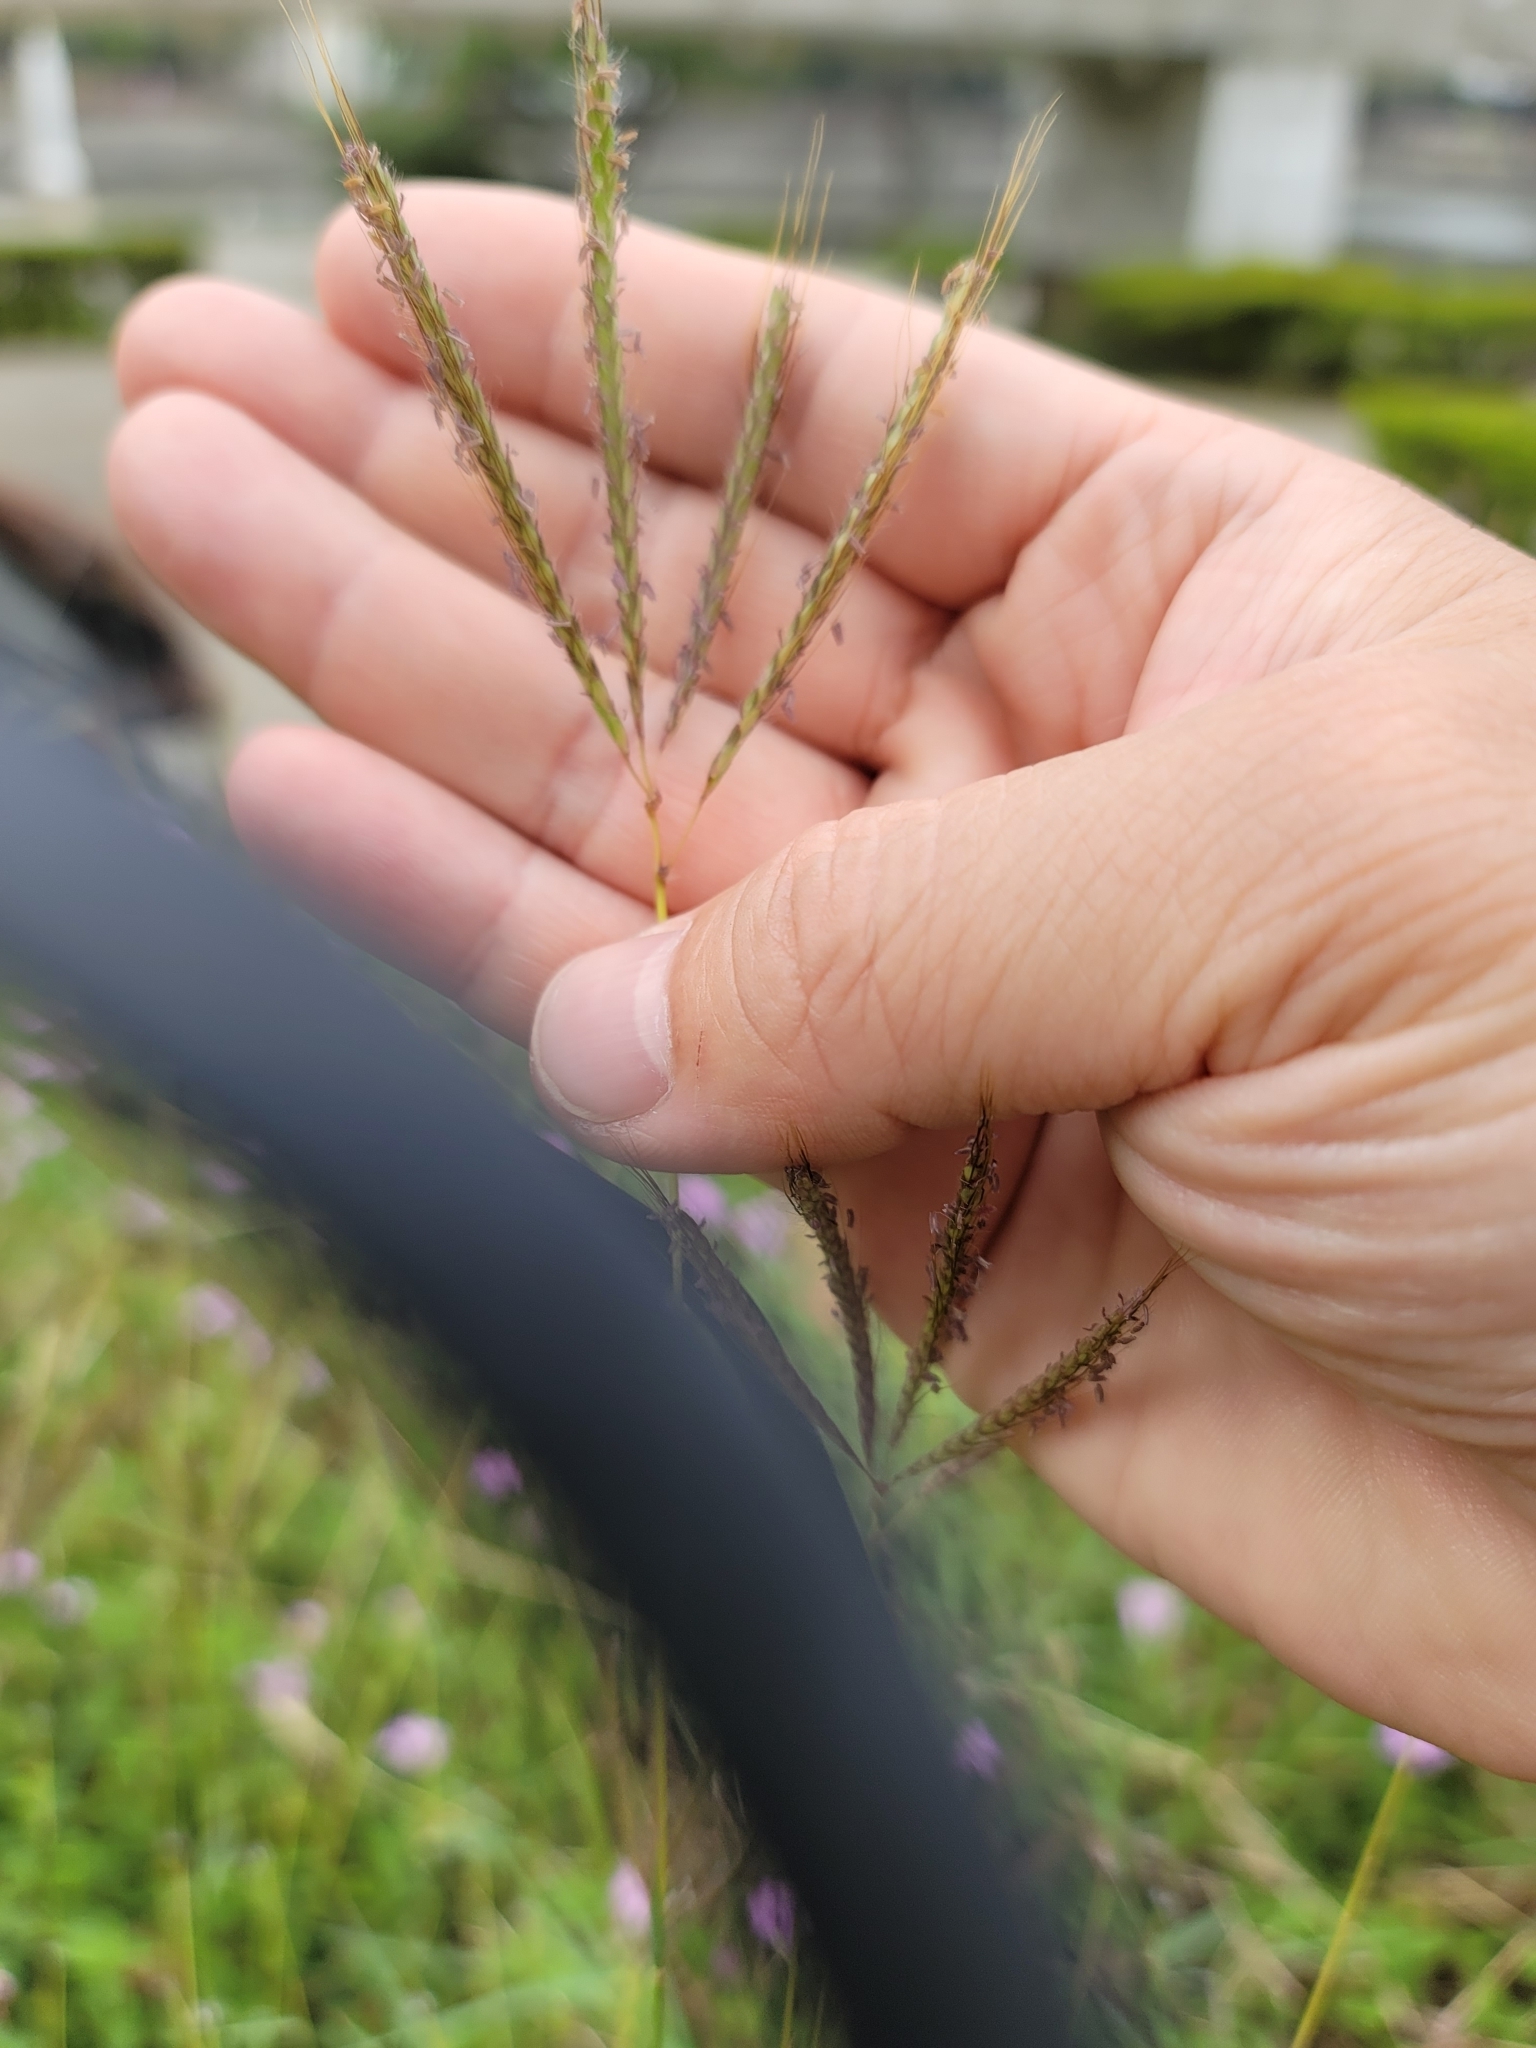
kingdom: Plantae
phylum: Tracheophyta
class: Liliopsida
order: Poales
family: Poaceae
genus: Dichanthium
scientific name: Dichanthium annulatum
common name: Kleberg's bluestem
